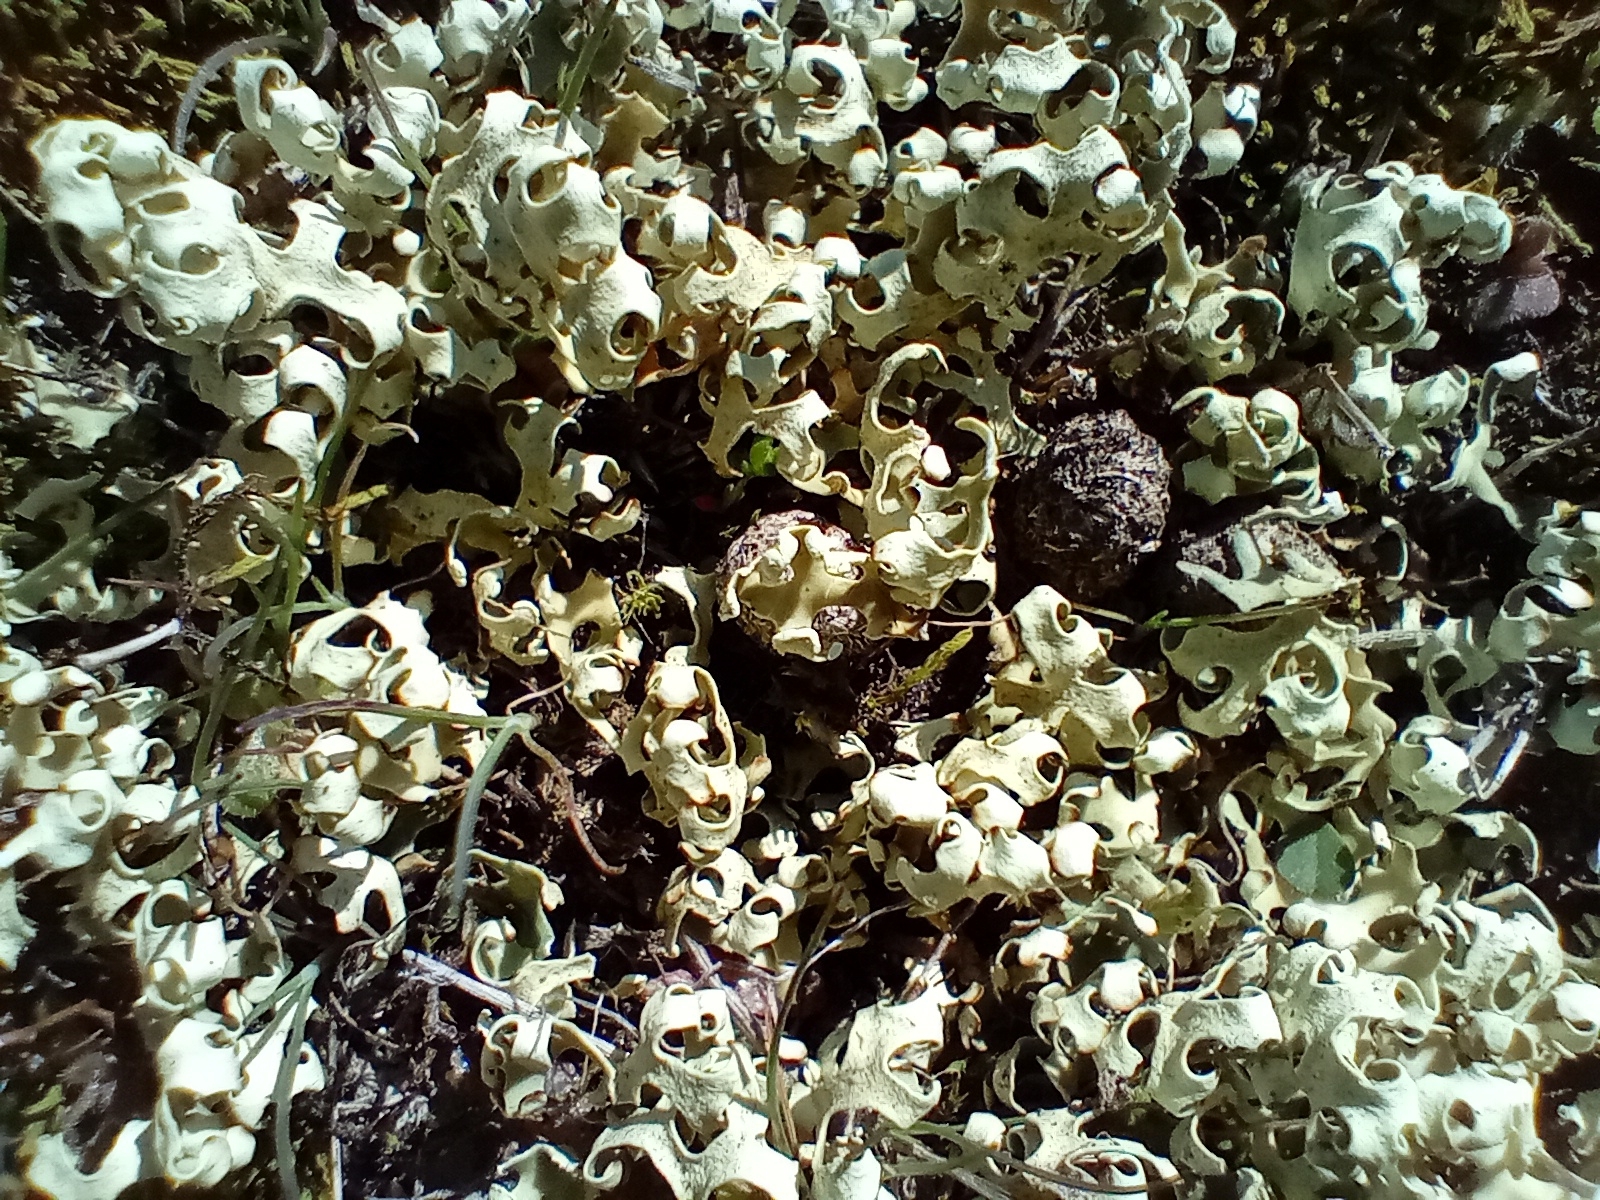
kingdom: Fungi
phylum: Ascomycota
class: Lecanoromycetes
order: Lecanorales
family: Parmeliaceae
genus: Xanthoparmelia
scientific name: Xanthoparmelia semiviridis
